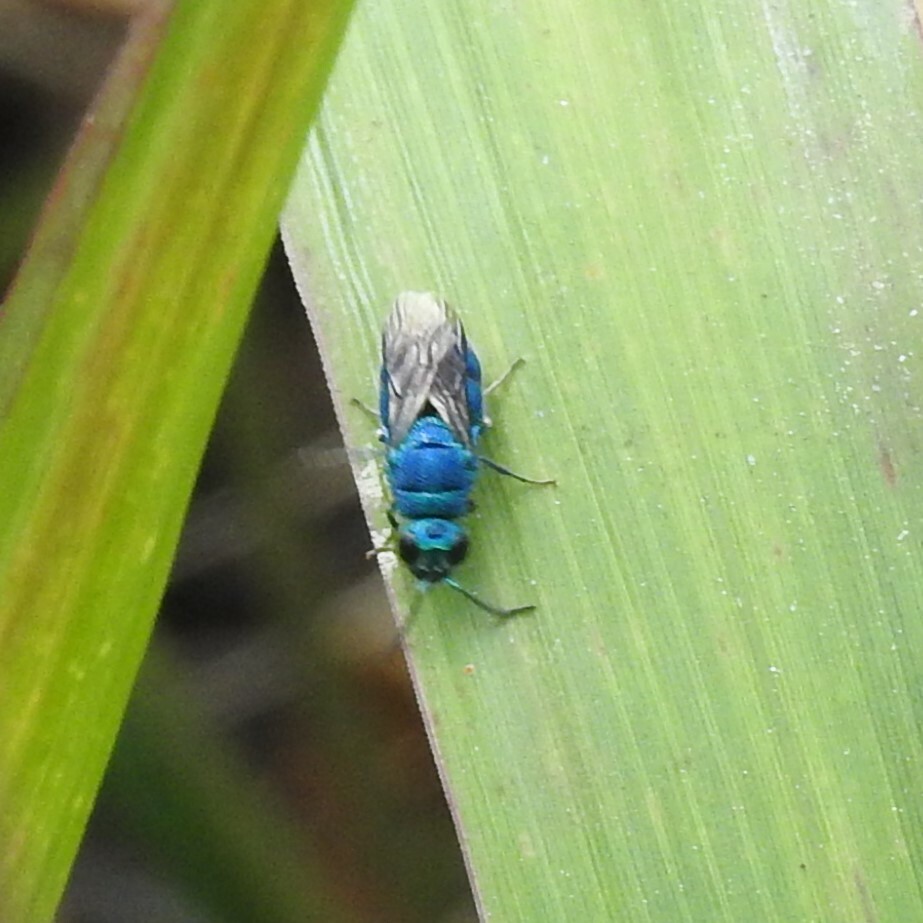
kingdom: Animalia
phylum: Arthropoda
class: Insecta
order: Hymenoptera
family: Chrysididae
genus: Chrysis
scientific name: Chrysis conica
